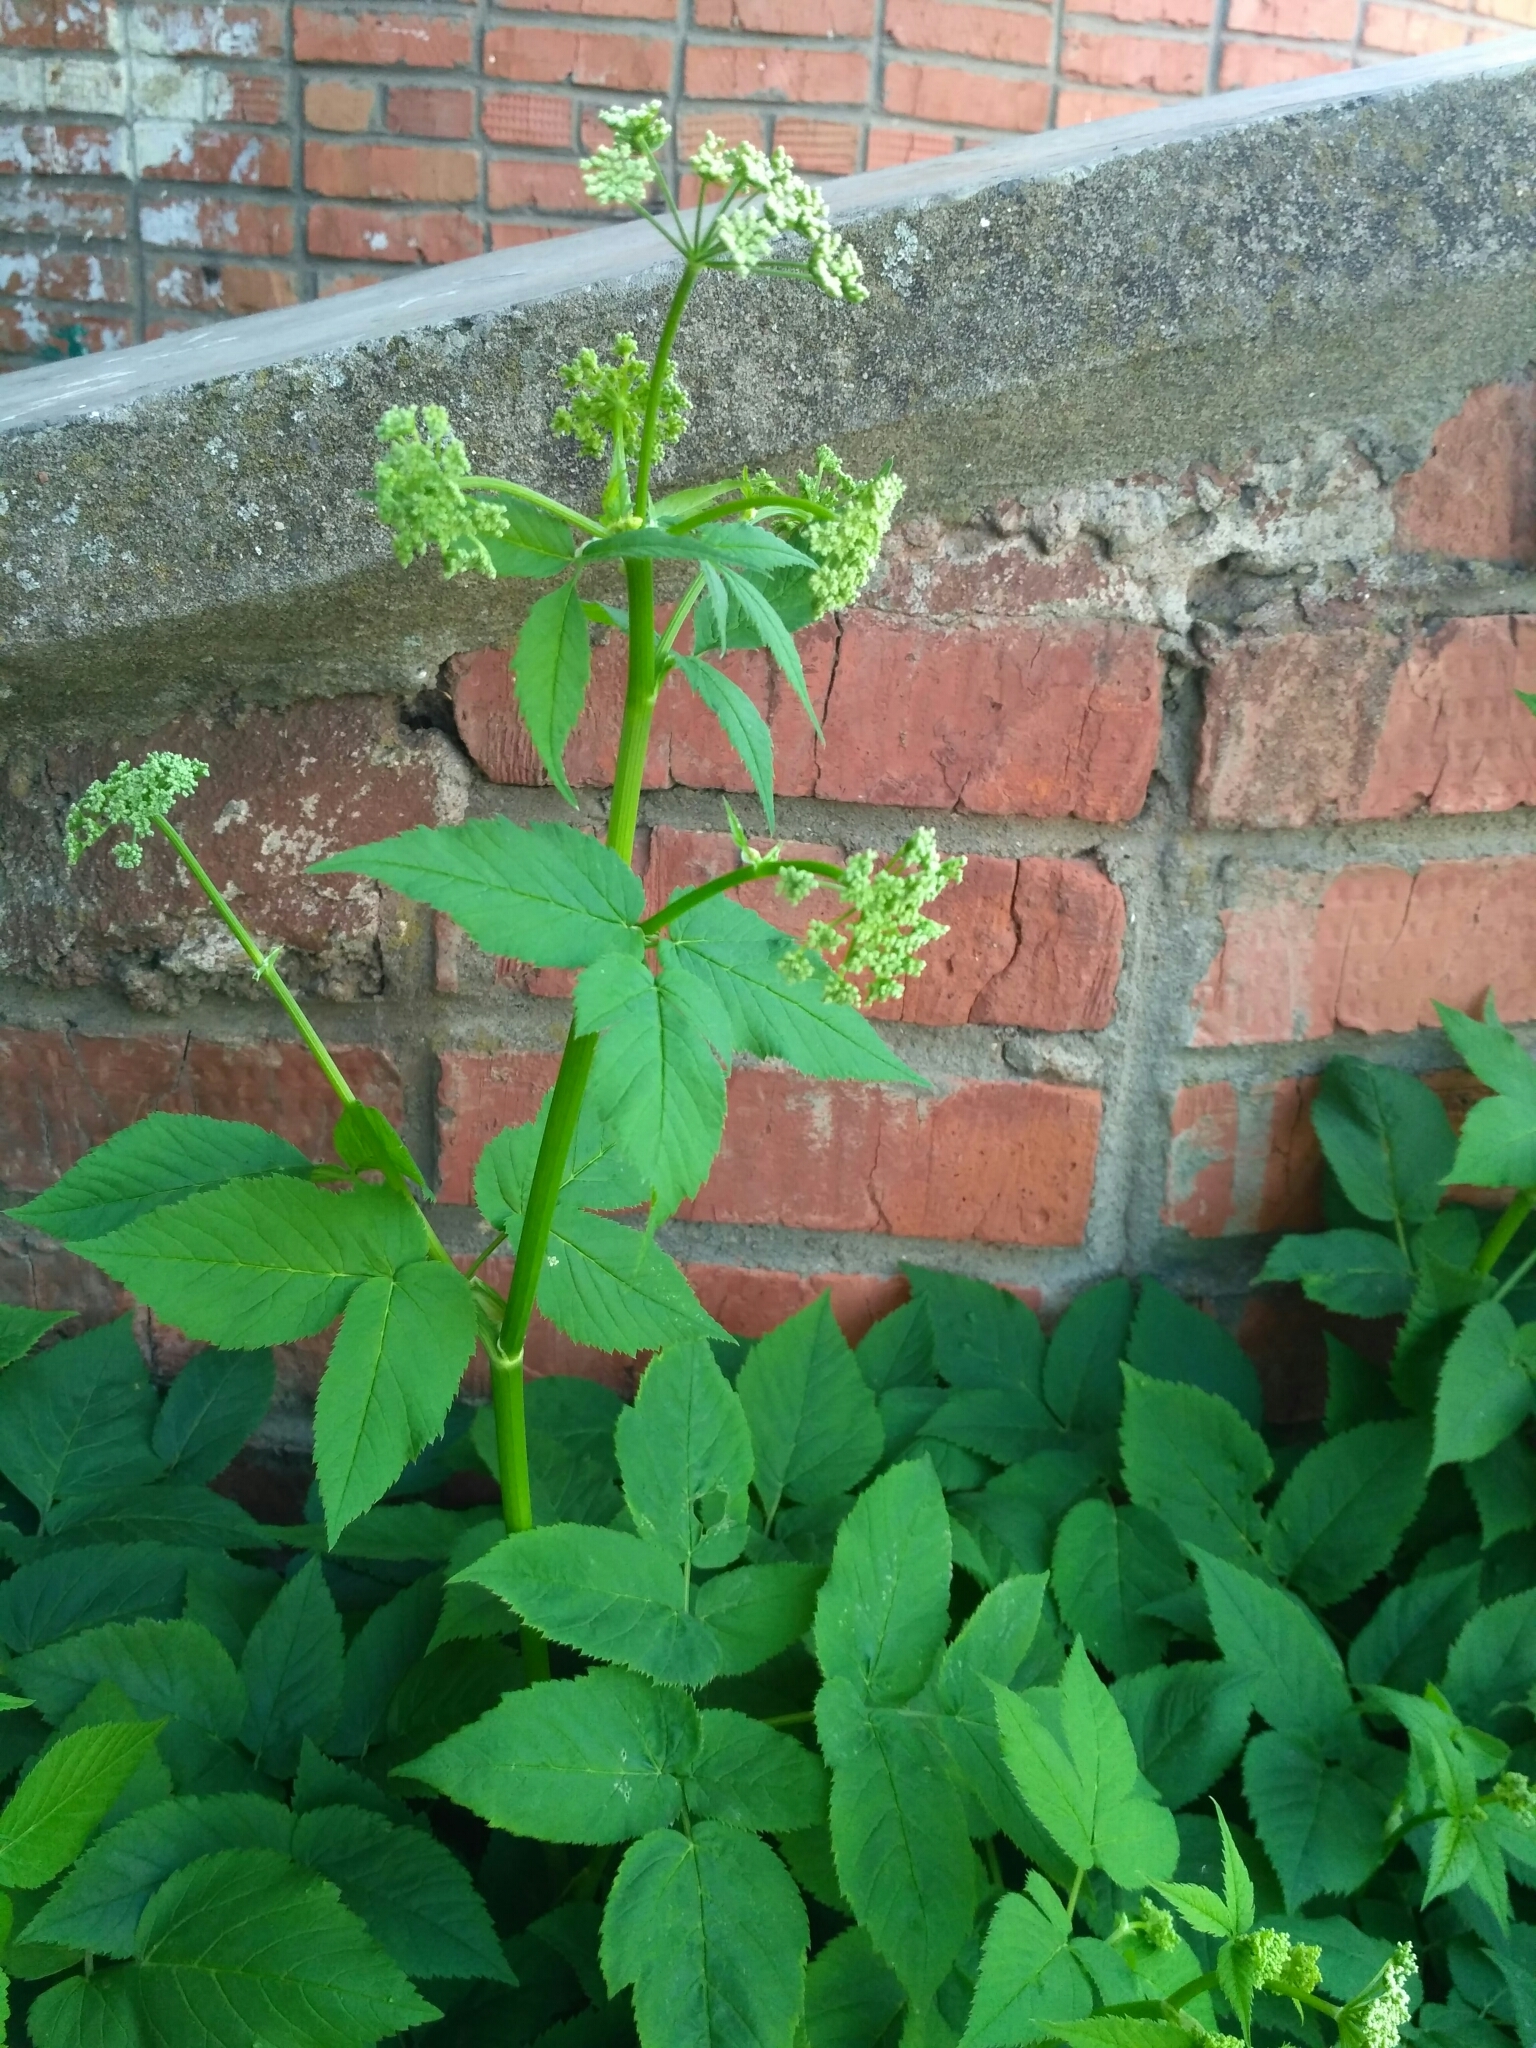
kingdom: Plantae
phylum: Tracheophyta
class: Magnoliopsida
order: Apiales
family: Apiaceae
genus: Aegopodium
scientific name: Aegopodium podagraria
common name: Ground-elder
